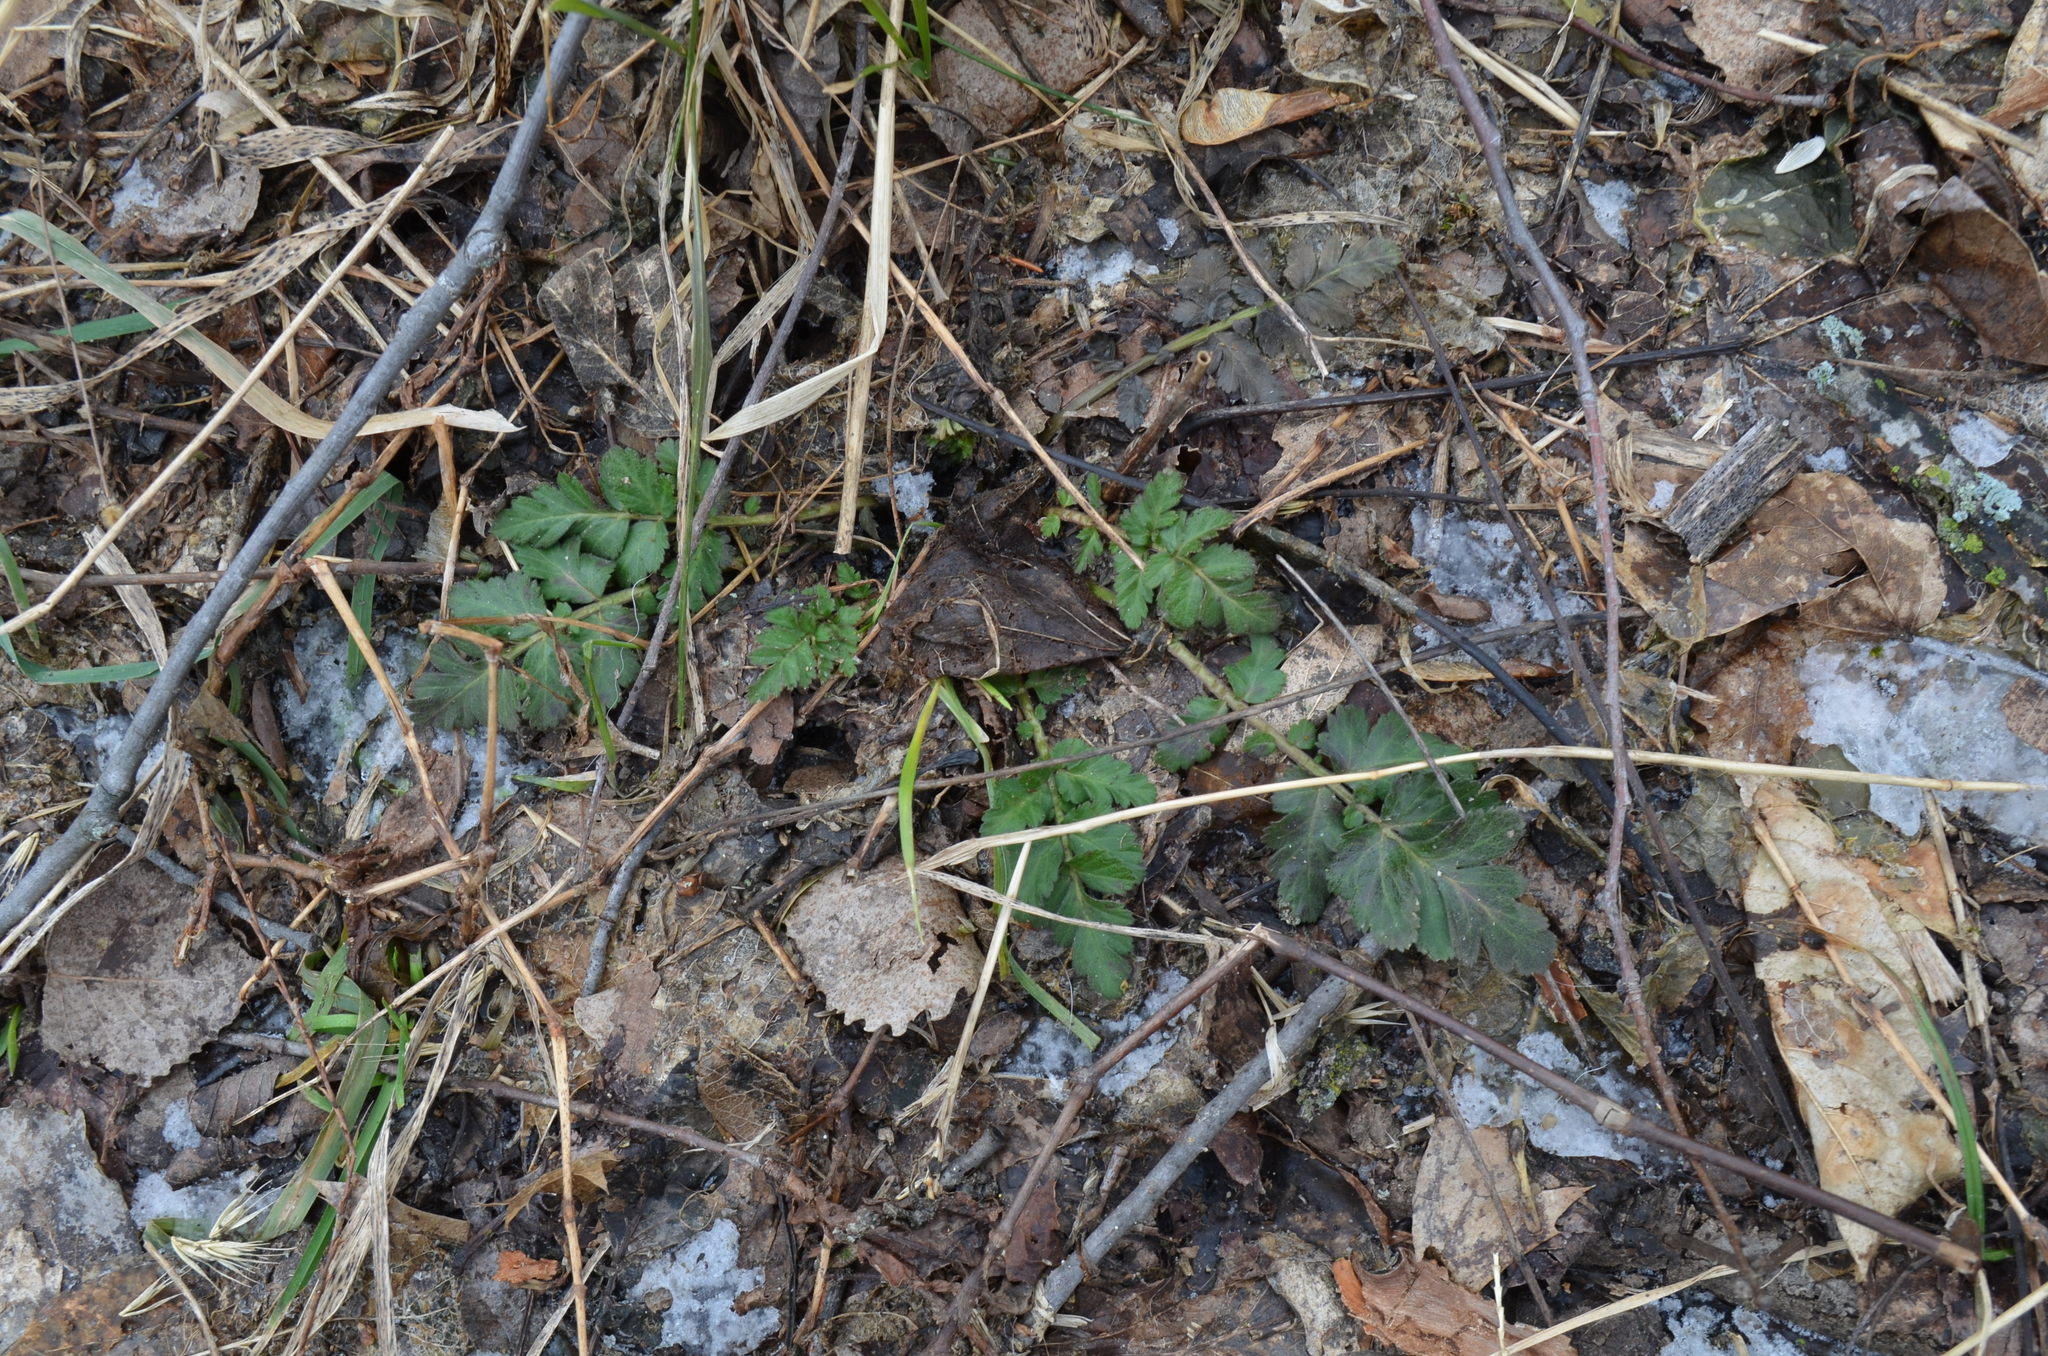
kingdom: Plantae
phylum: Tracheophyta
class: Magnoliopsida
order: Rosales
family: Rosaceae
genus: Geum
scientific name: Geum canadense
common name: White avens
